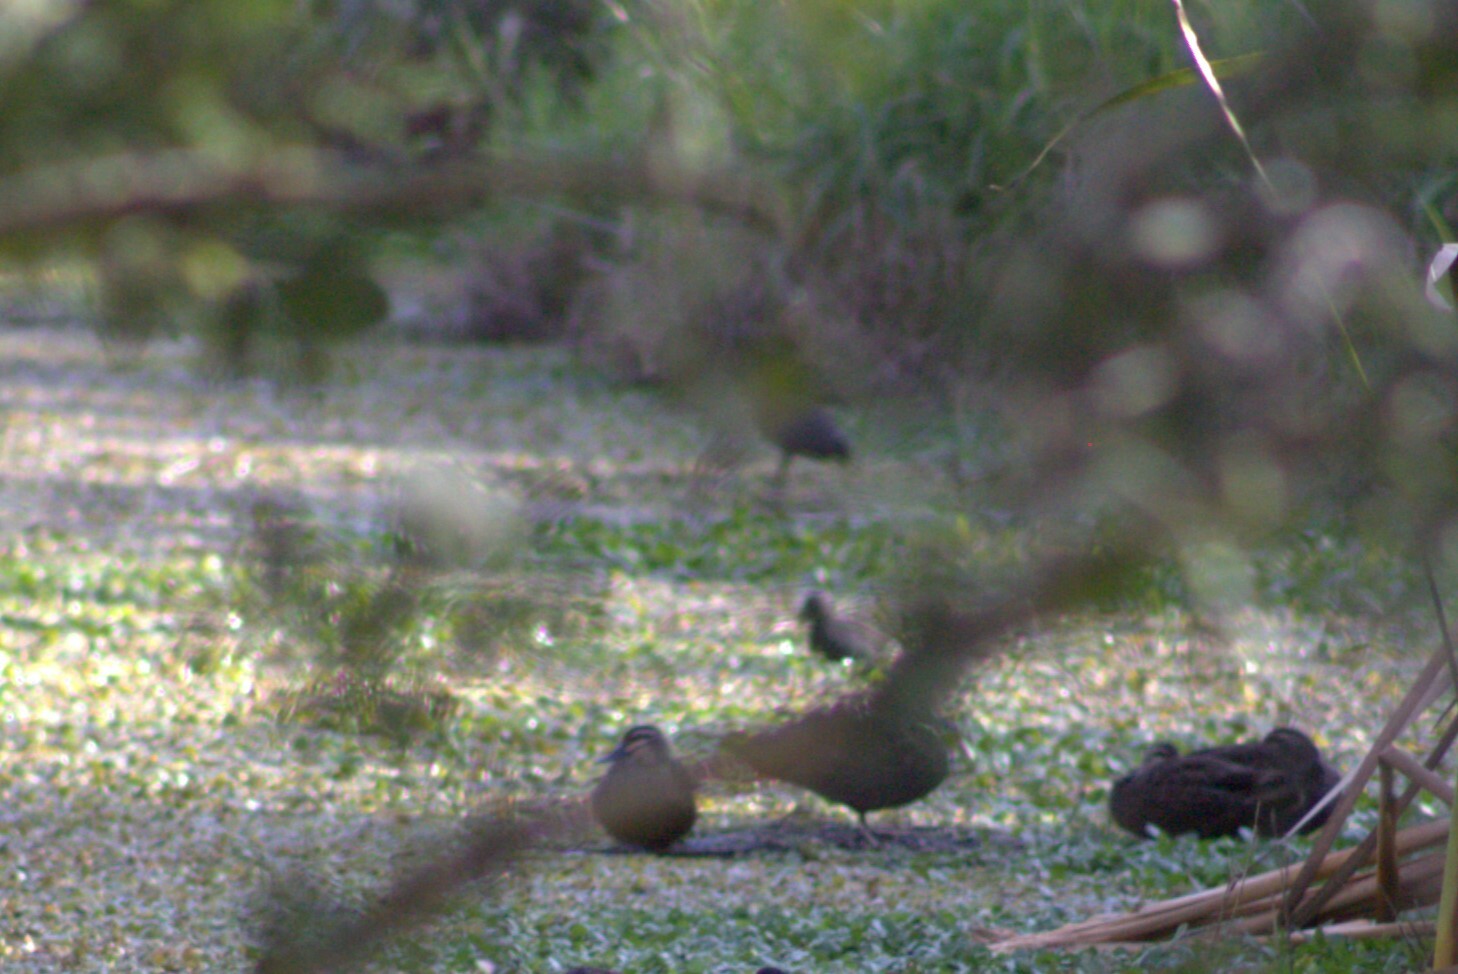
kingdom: Animalia
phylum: Chordata
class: Aves
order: Anseriformes
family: Anatidae
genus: Anas
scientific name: Anas superciliosa
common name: Pacific black duck
